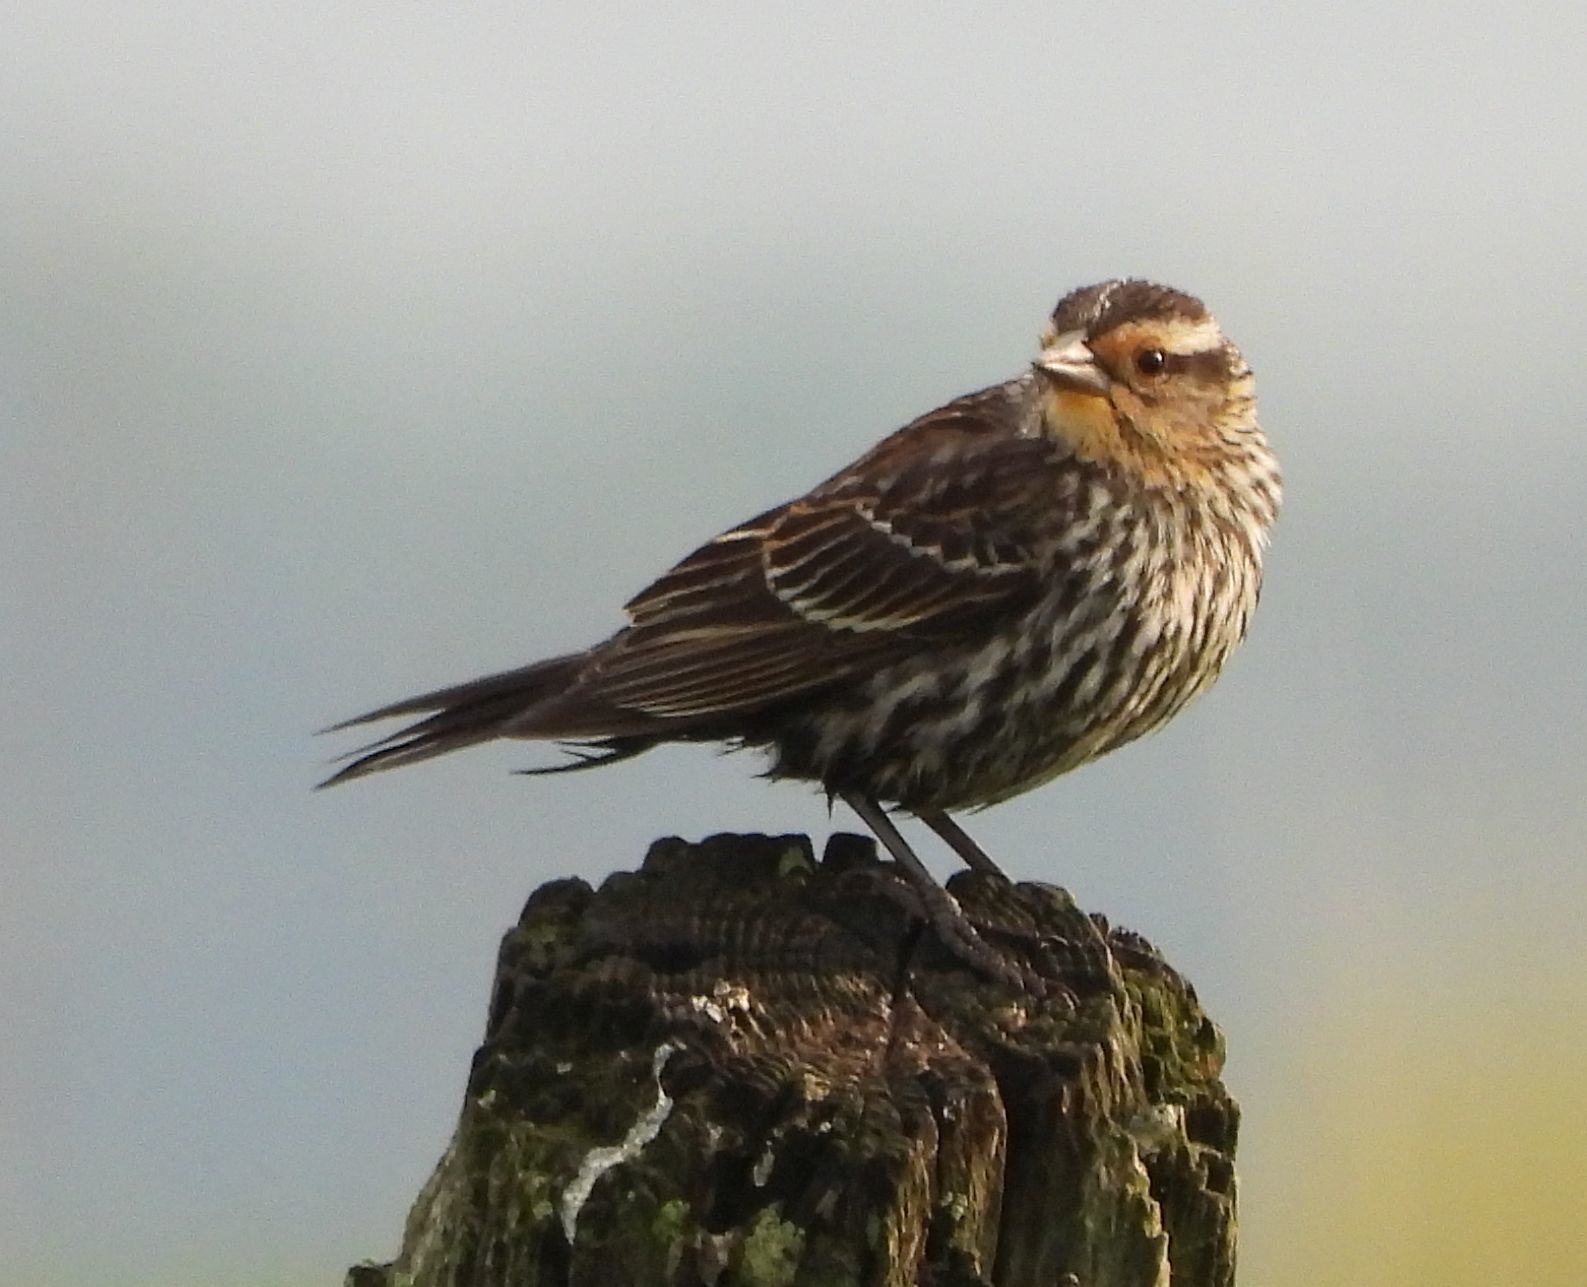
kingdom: Animalia
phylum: Chordata
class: Aves
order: Passeriformes
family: Icteridae
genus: Agelaius
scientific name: Agelaius phoeniceus
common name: Red-winged blackbird
